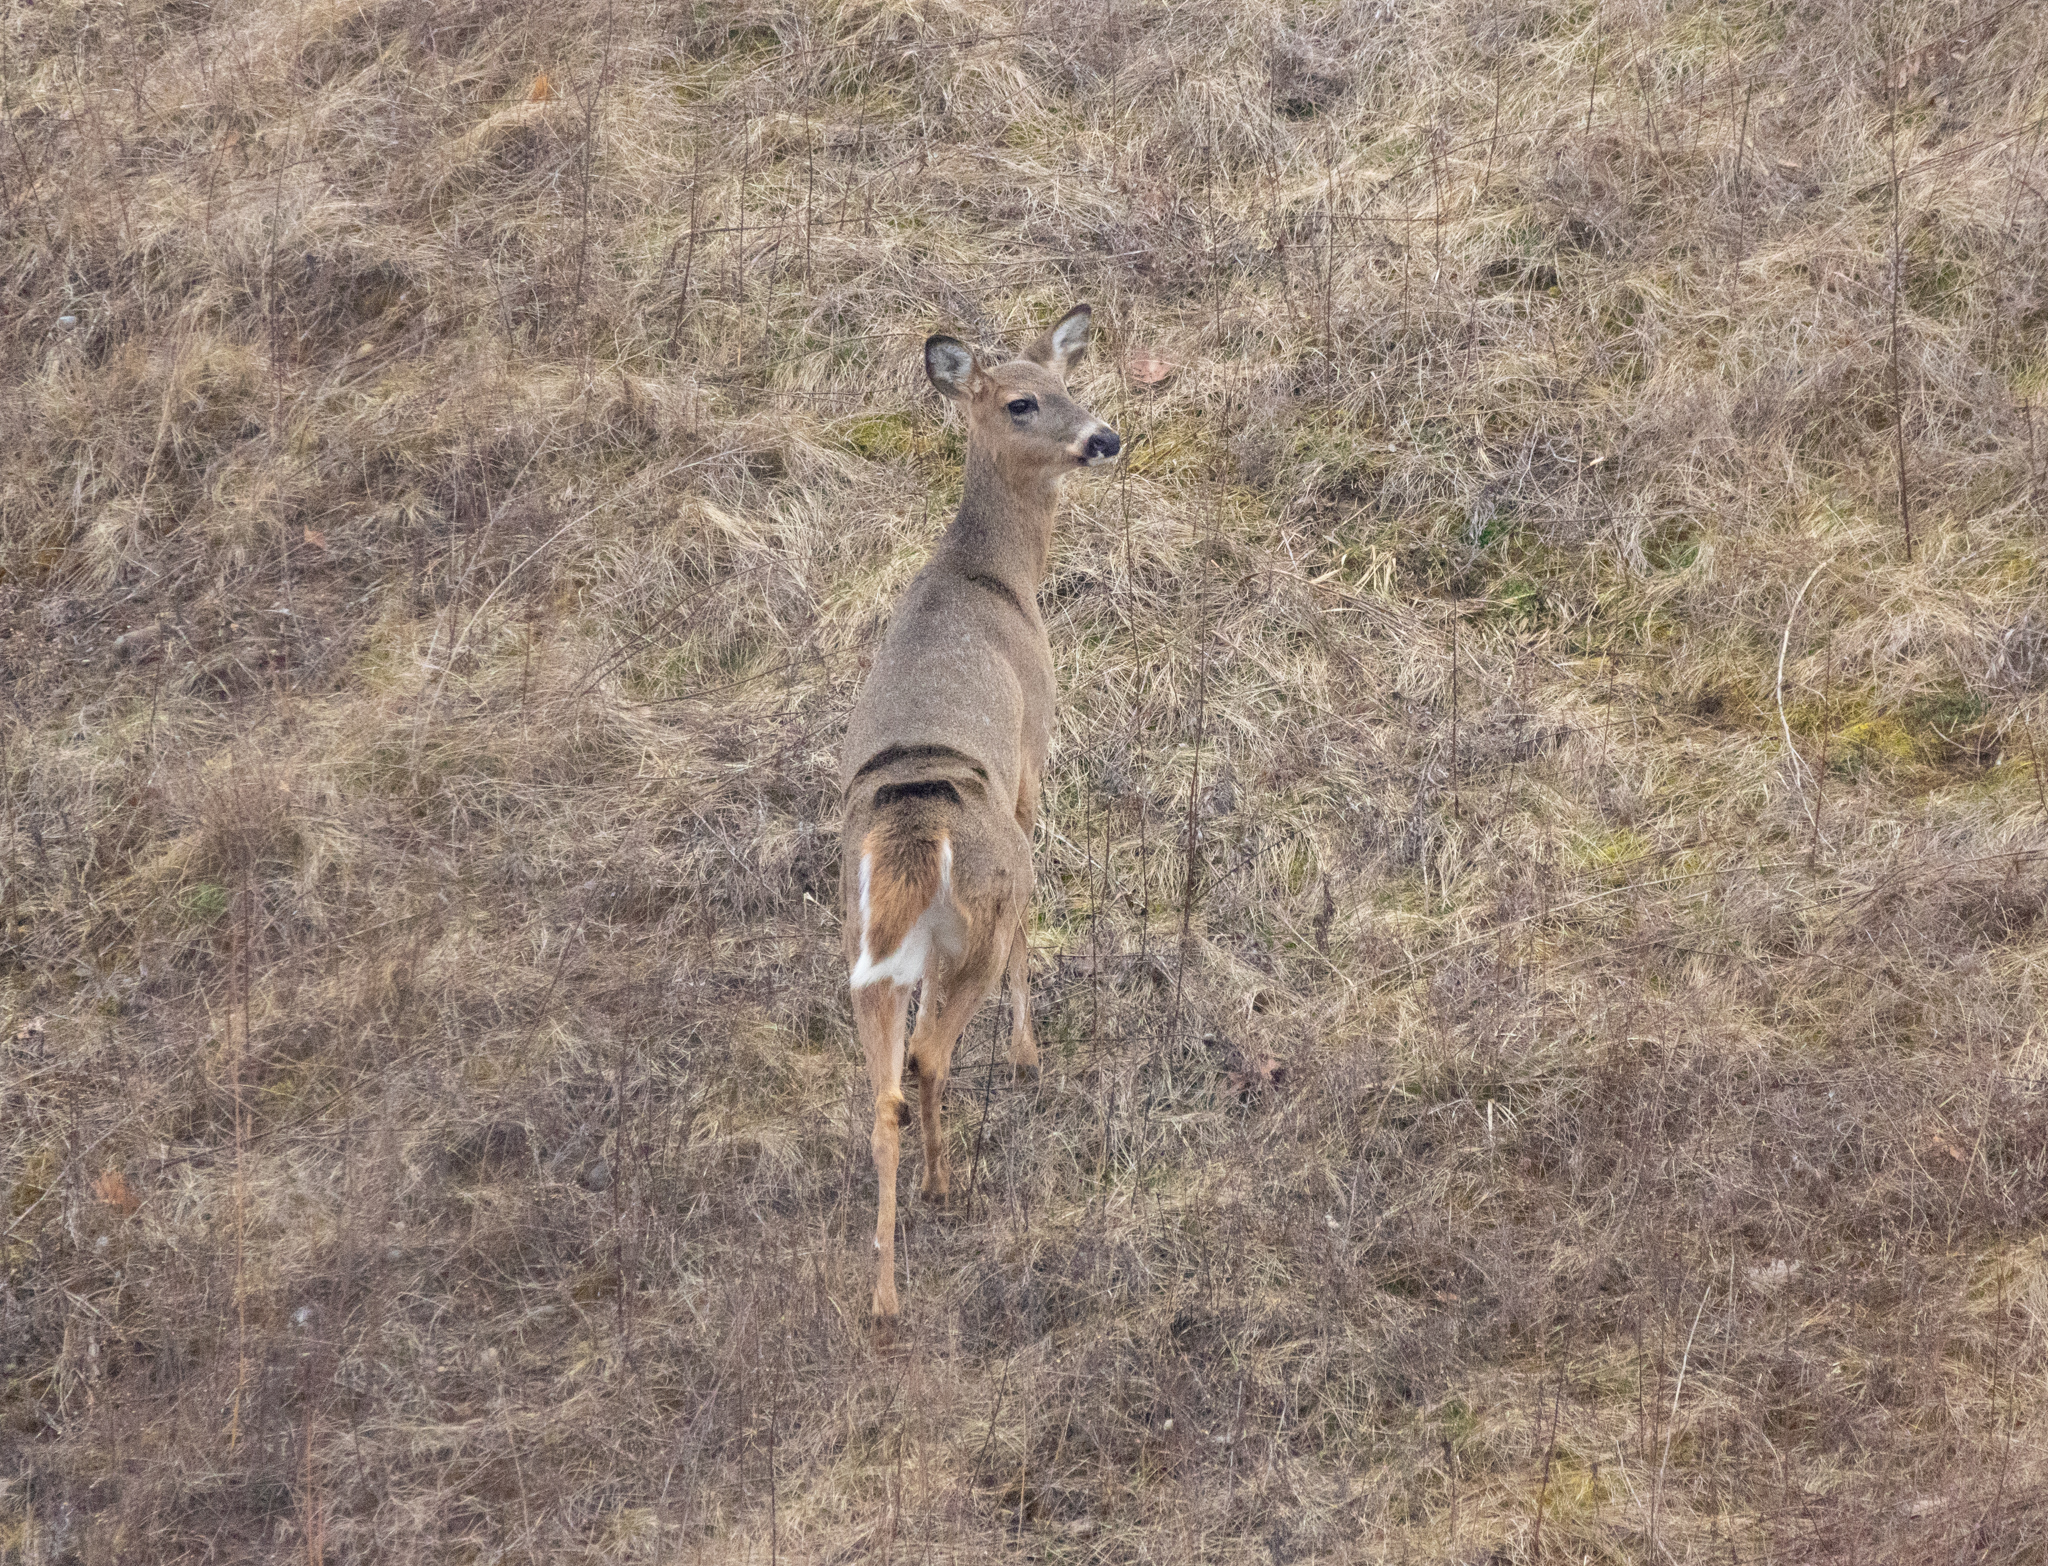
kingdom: Animalia
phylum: Chordata
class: Mammalia
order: Artiodactyla
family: Cervidae
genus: Odocoileus
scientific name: Odocoileus virginianus
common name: White-tailed deer
